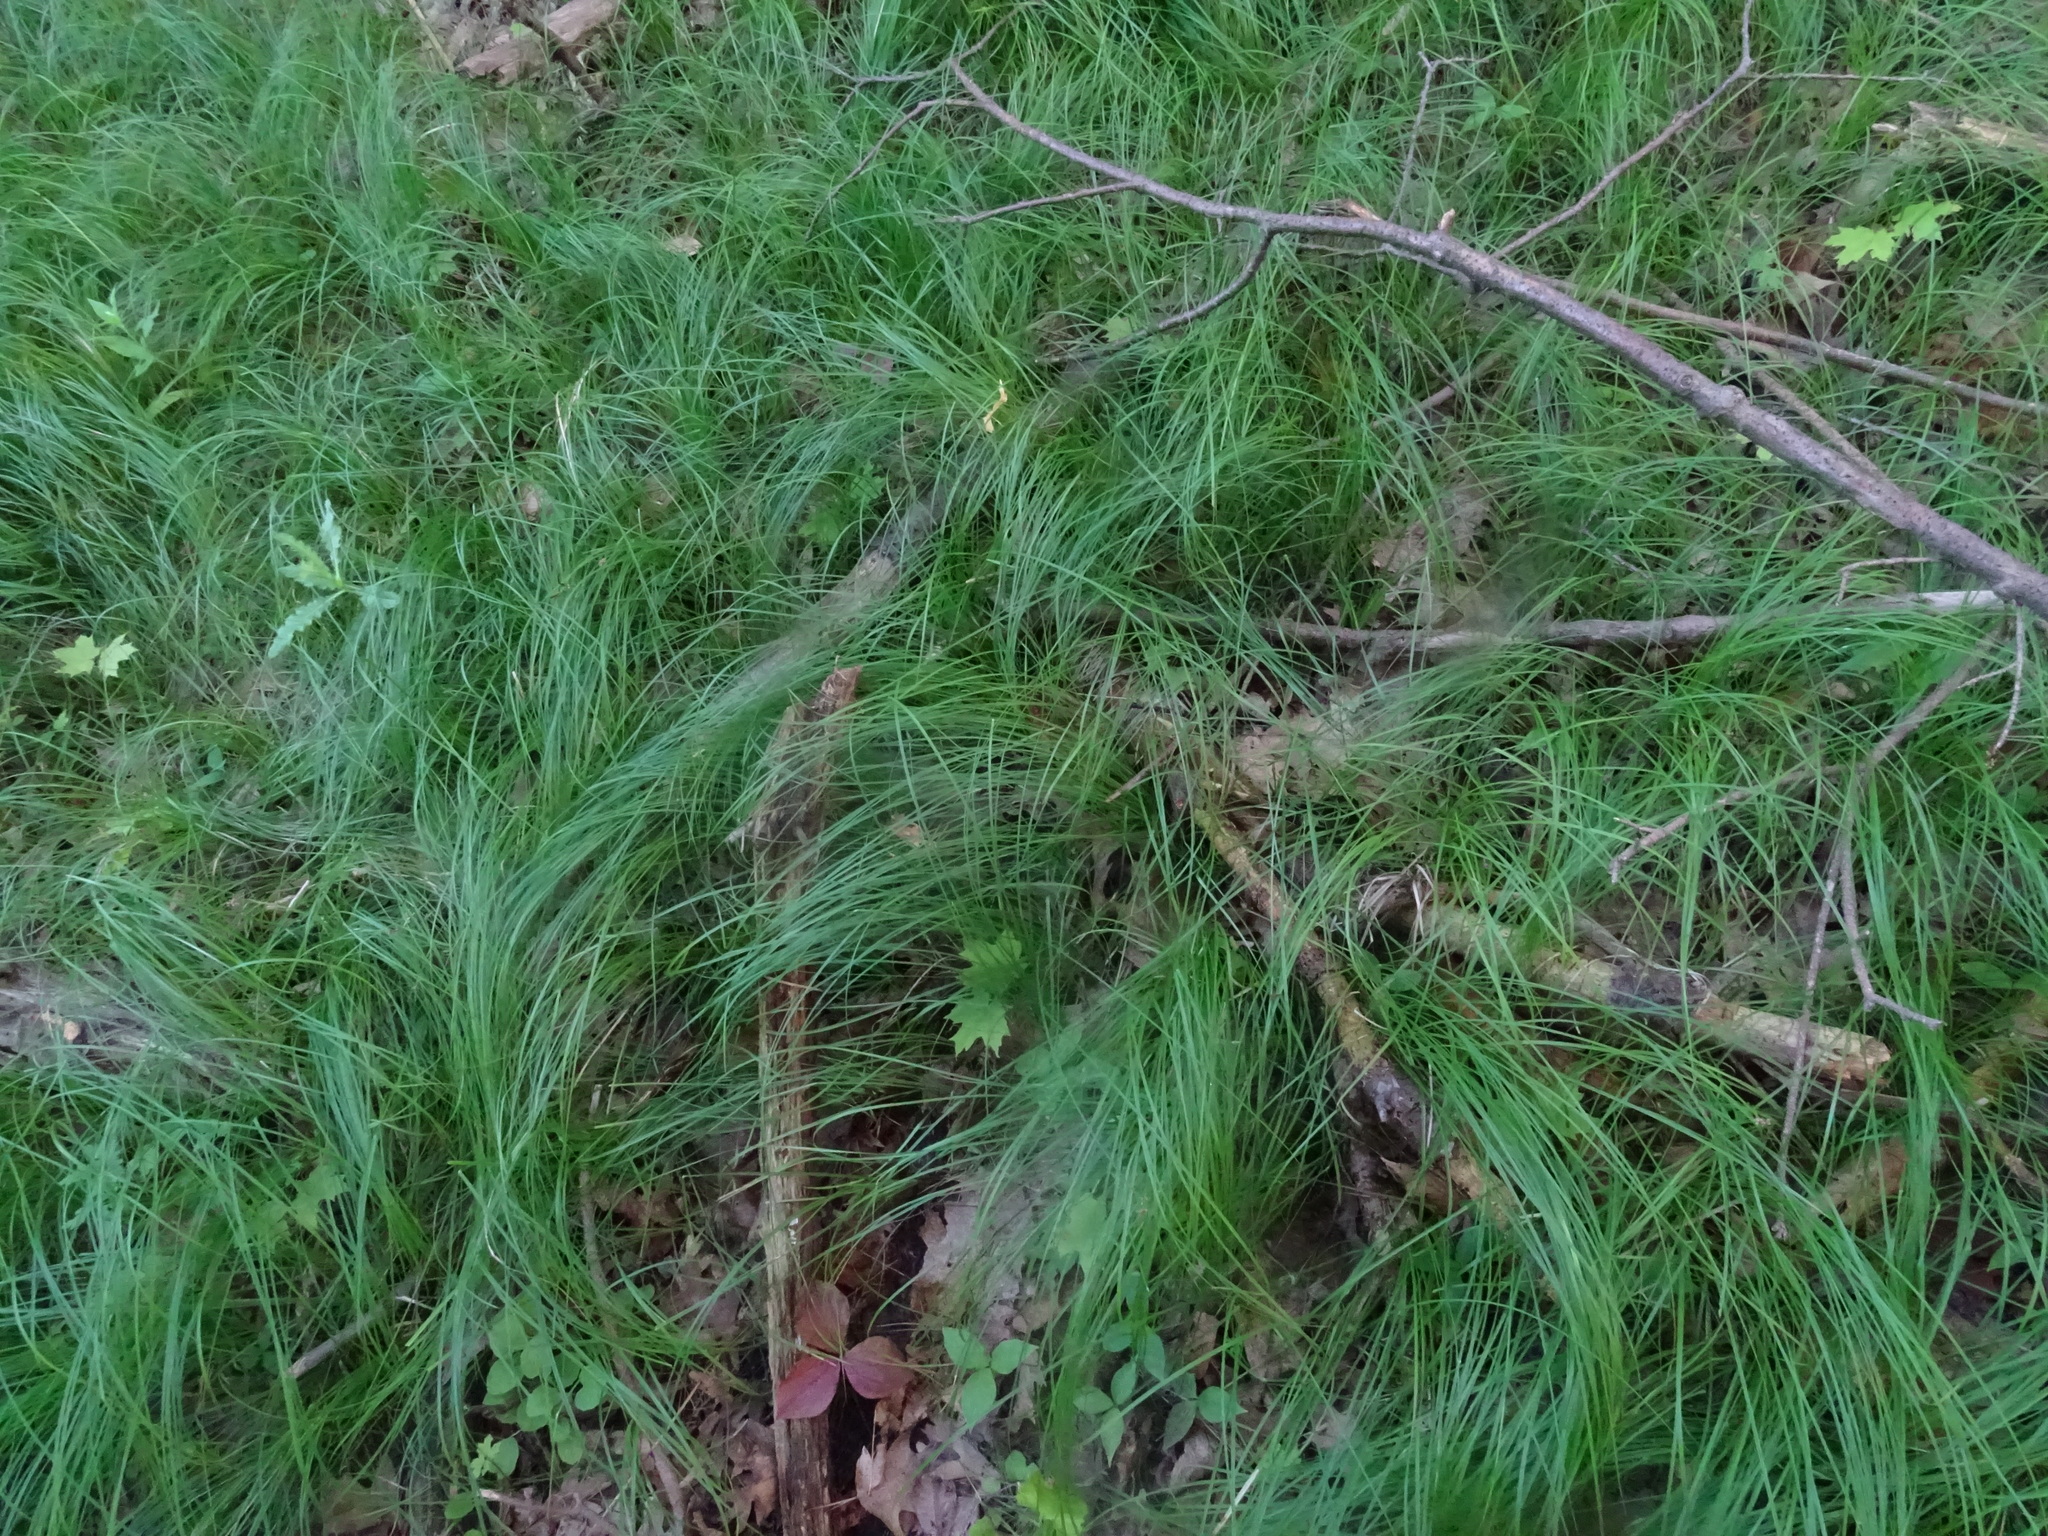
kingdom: Plantae
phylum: Tracheophyta
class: Liliopsida
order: Poales
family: Cyperaceae
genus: Carex
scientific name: Carex pensylvanica
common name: Common oak sedge
